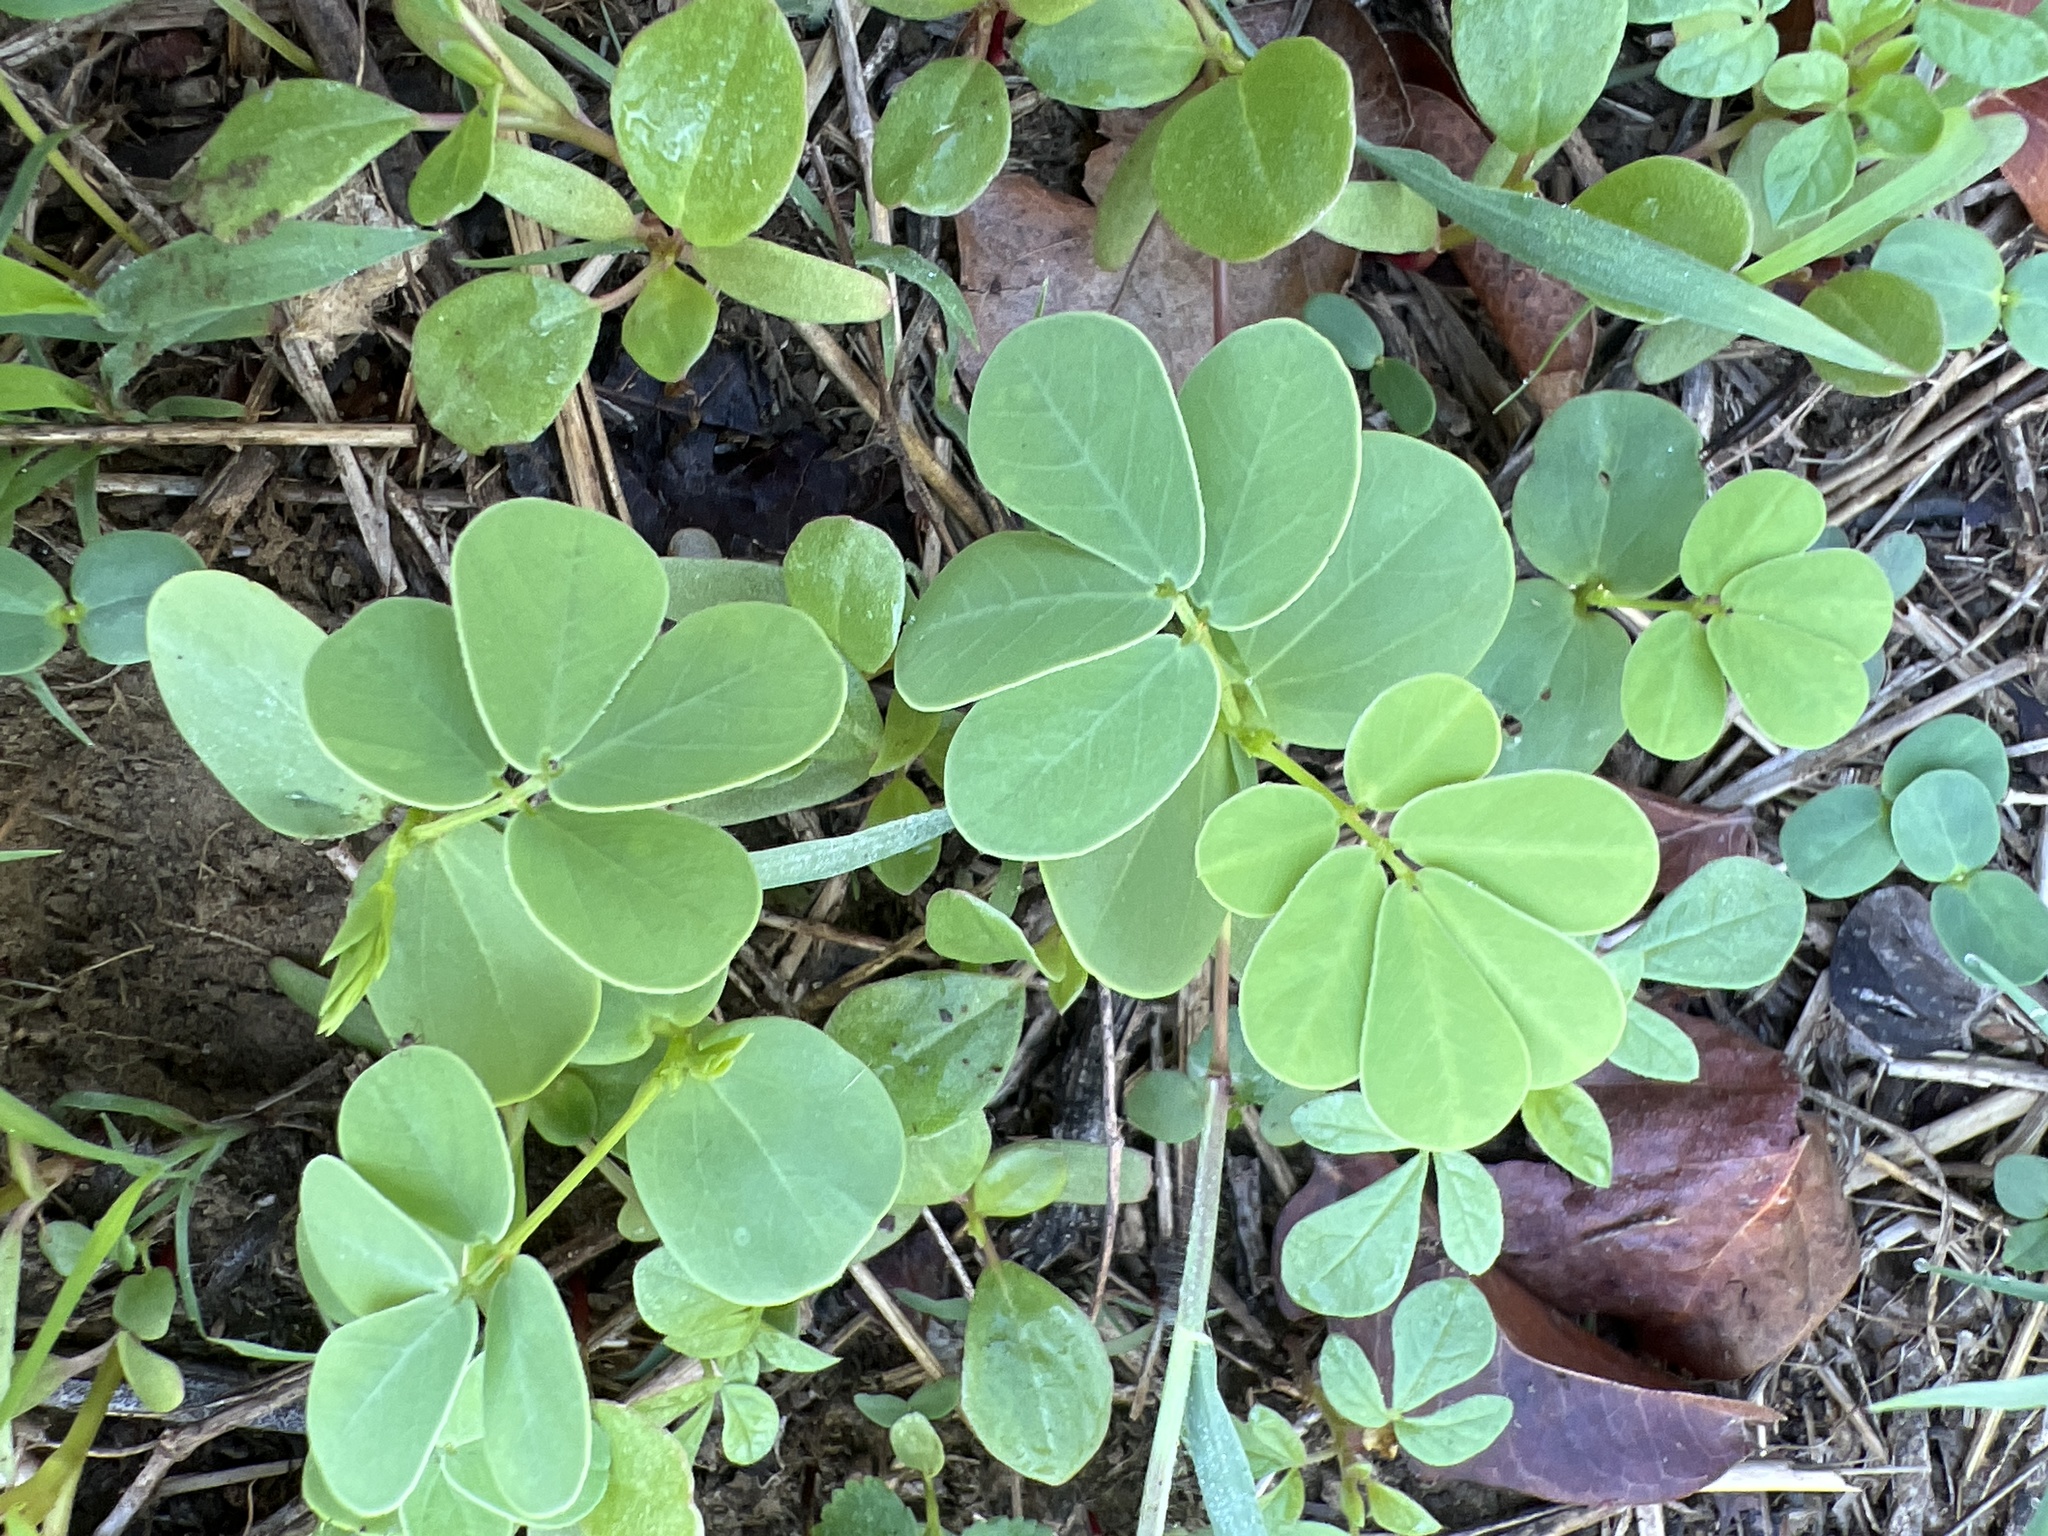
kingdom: Plantae
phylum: Tracheophyta
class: Magnoliopsida
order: Fabales
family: Fabaceae
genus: Senna
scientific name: Senna obtusifolia
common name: Java-bean
